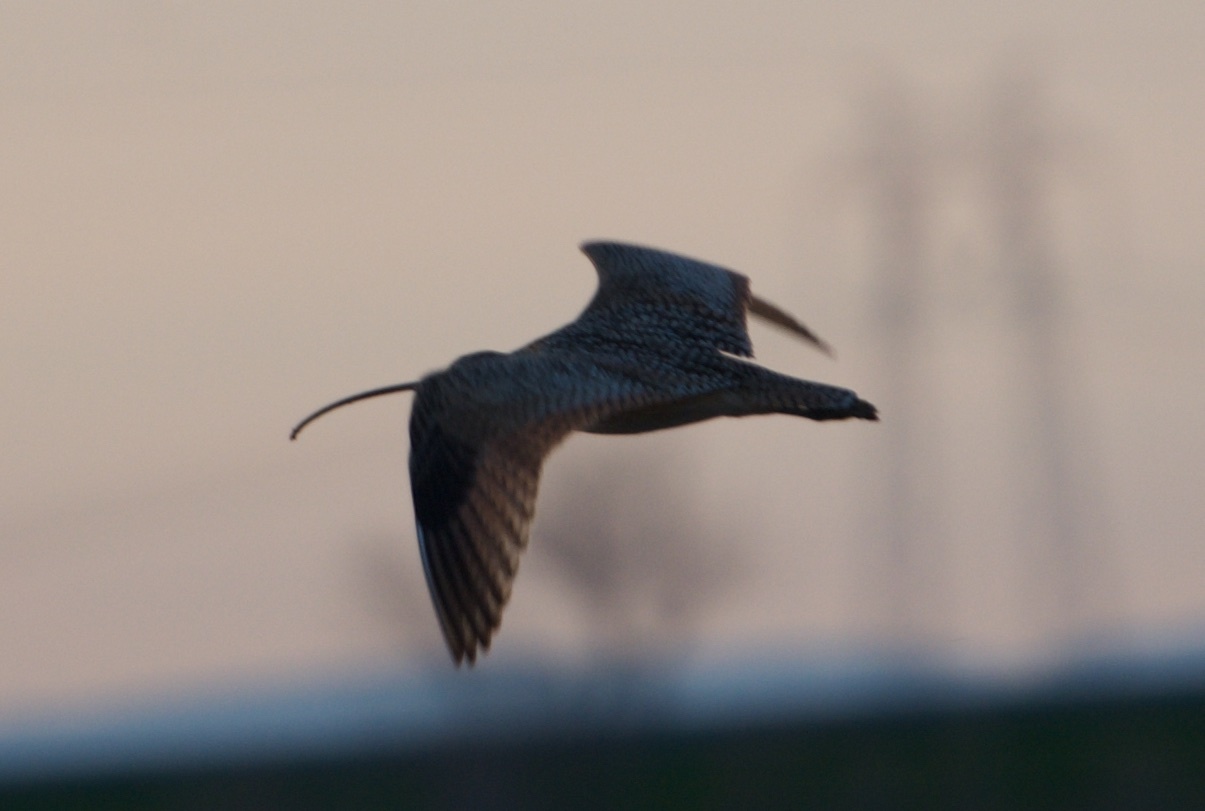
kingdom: Animalia
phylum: Chordata
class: Aves
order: Charadriiformes
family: Scolopacidae
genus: Numenius
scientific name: Numenius americanus
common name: Long-billed curlew
